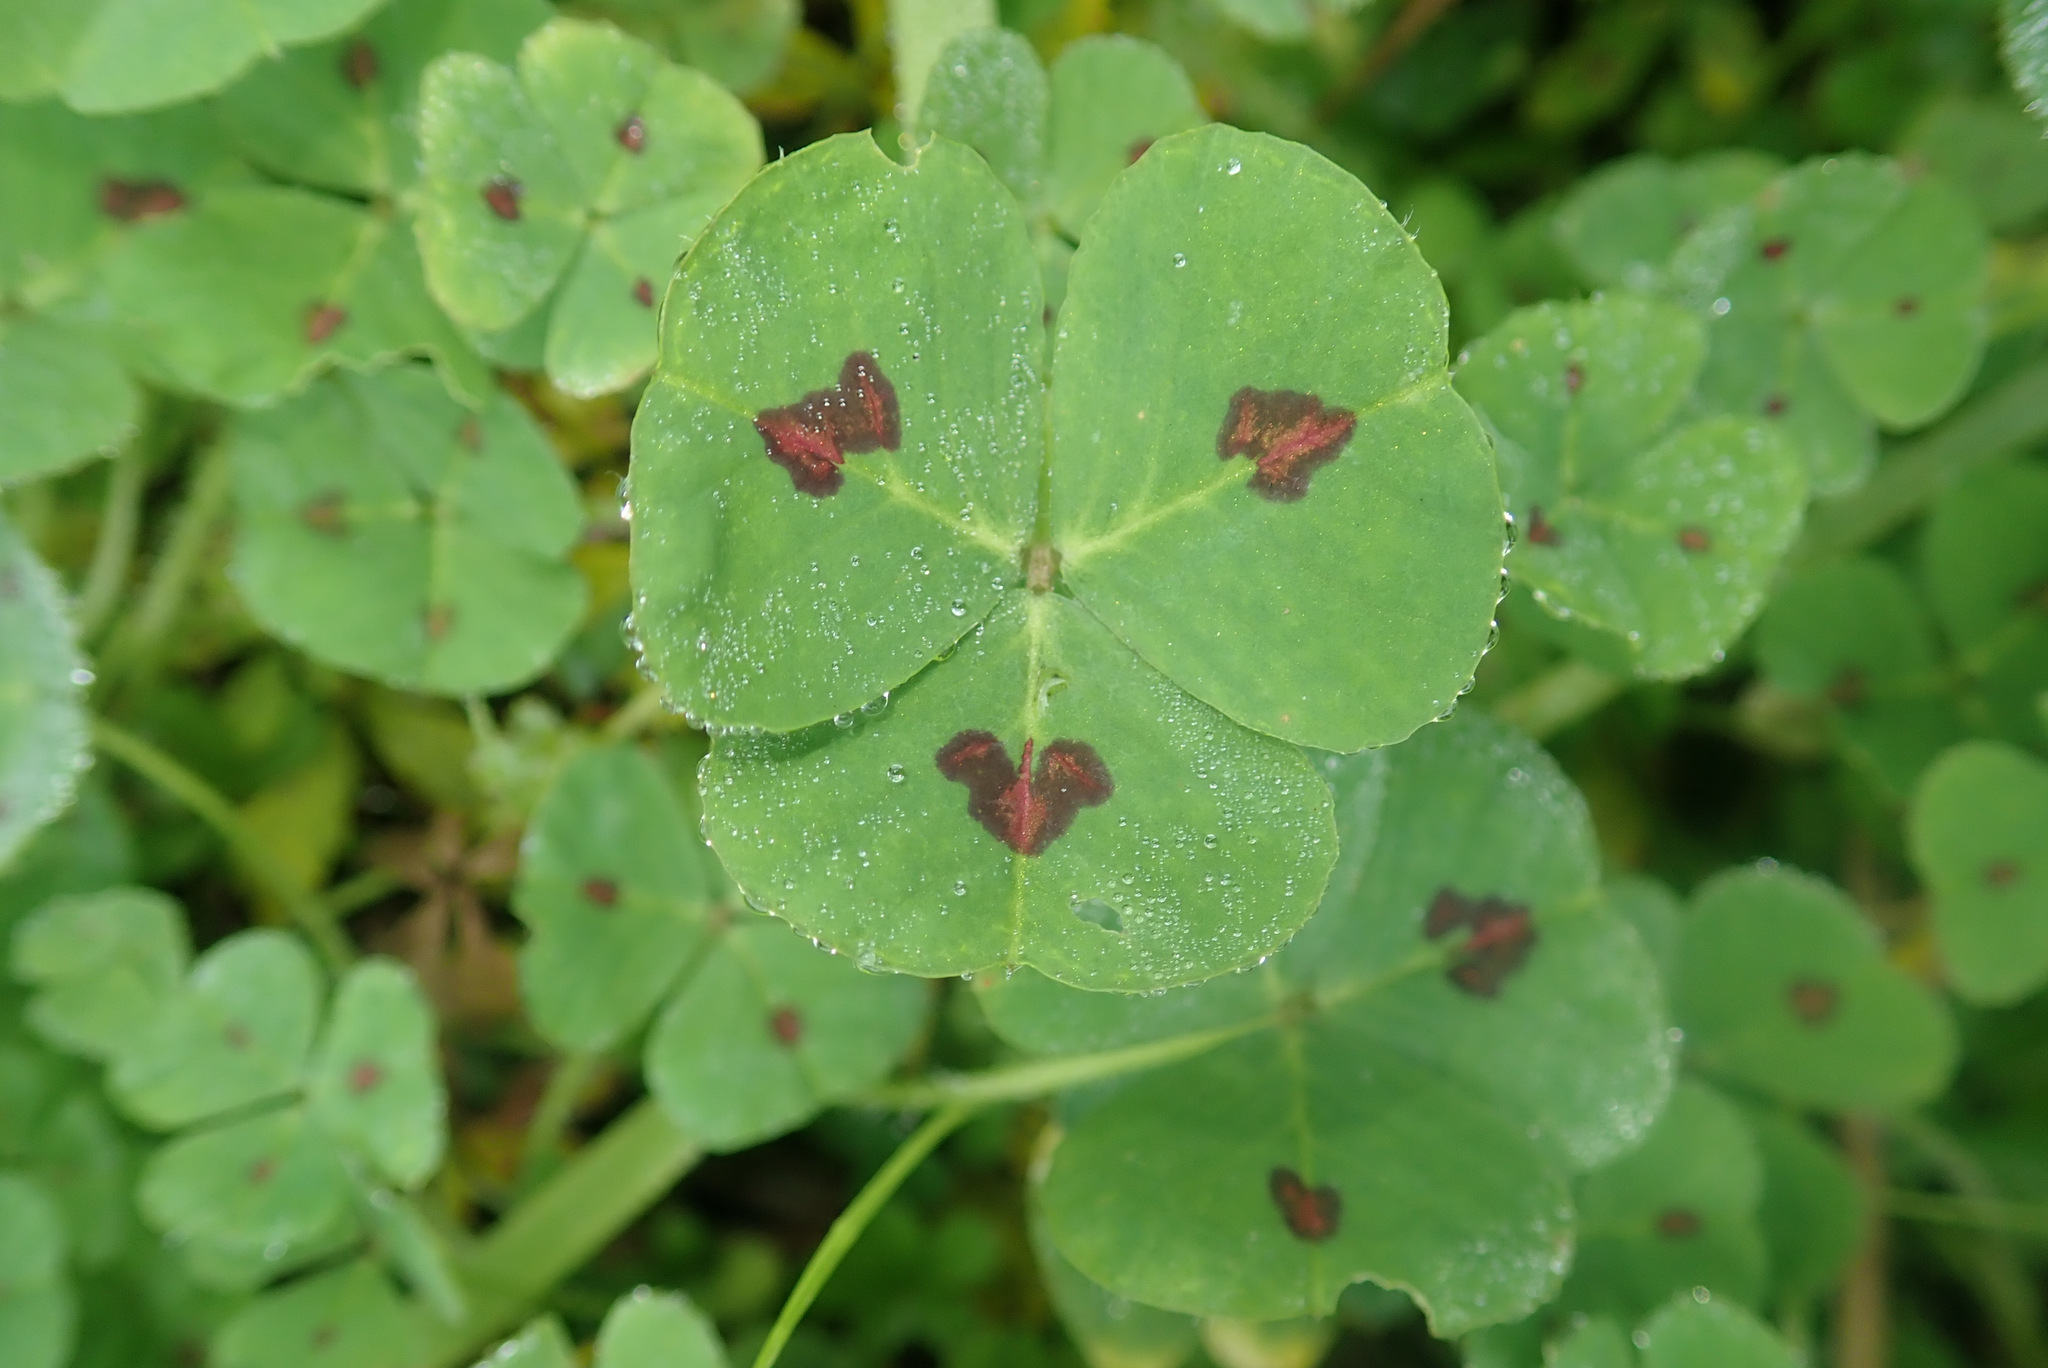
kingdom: Plantae
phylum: Tracheophyta
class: Magnoliopsida
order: Fabales
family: Fabaceae
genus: Medicago
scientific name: Medicago arabica
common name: Spotted medick
